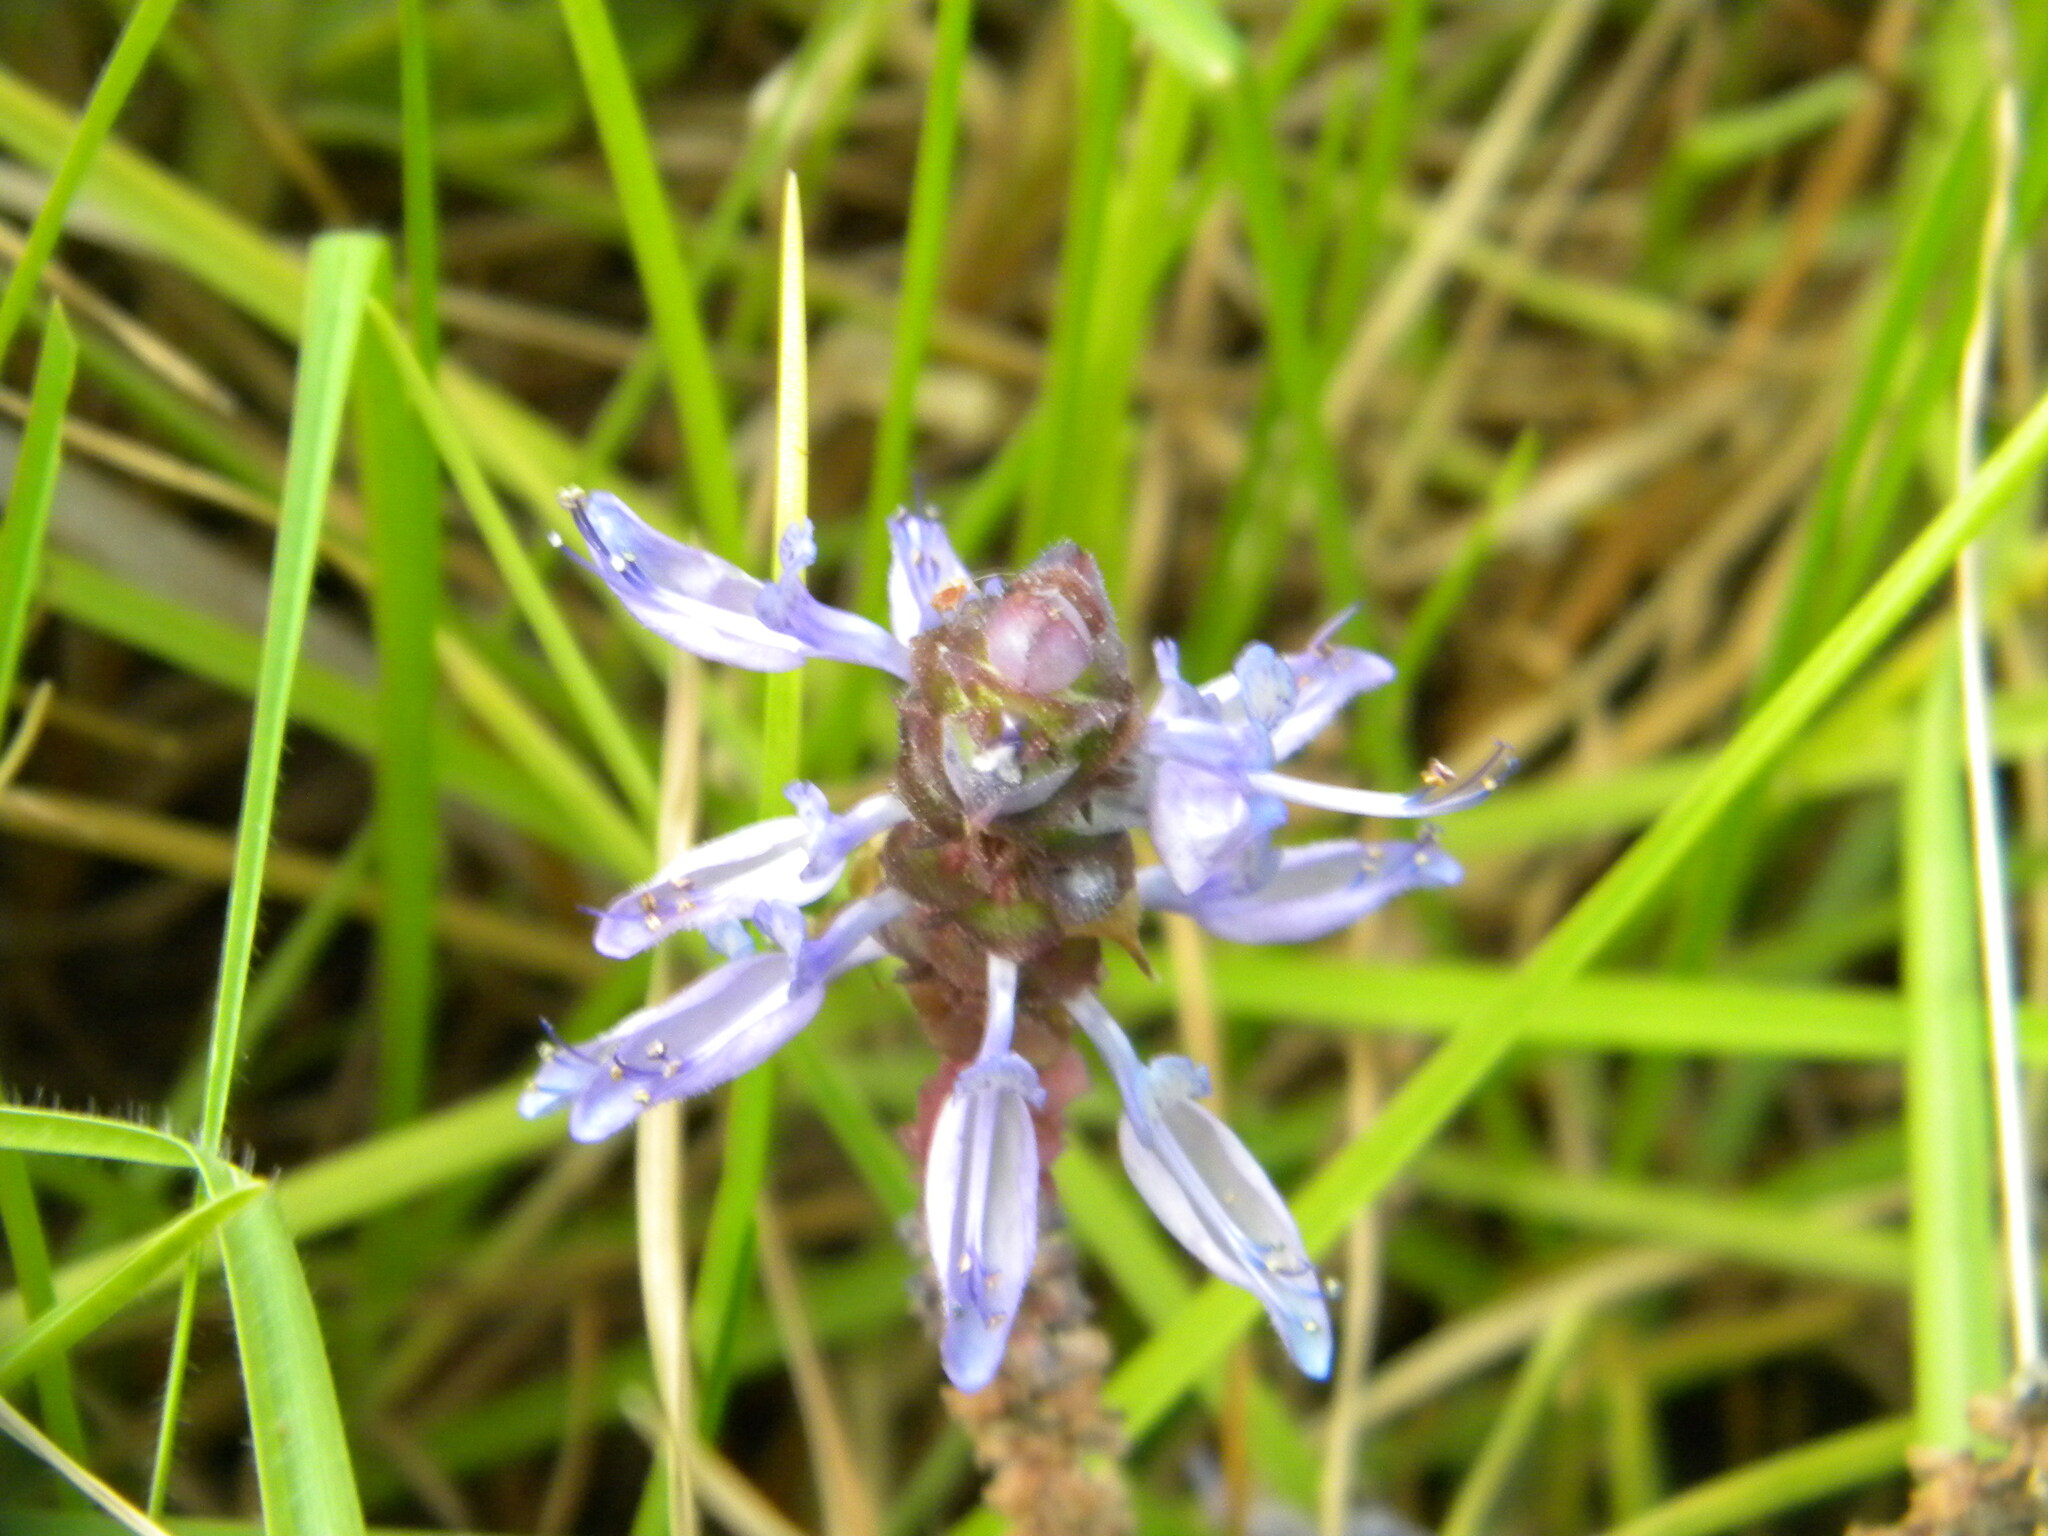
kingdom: Plantae
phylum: Tracheophyta
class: Magnoliopsida
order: Lamiales
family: Lamiaceae
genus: Coleus
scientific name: Coleus neochilus
